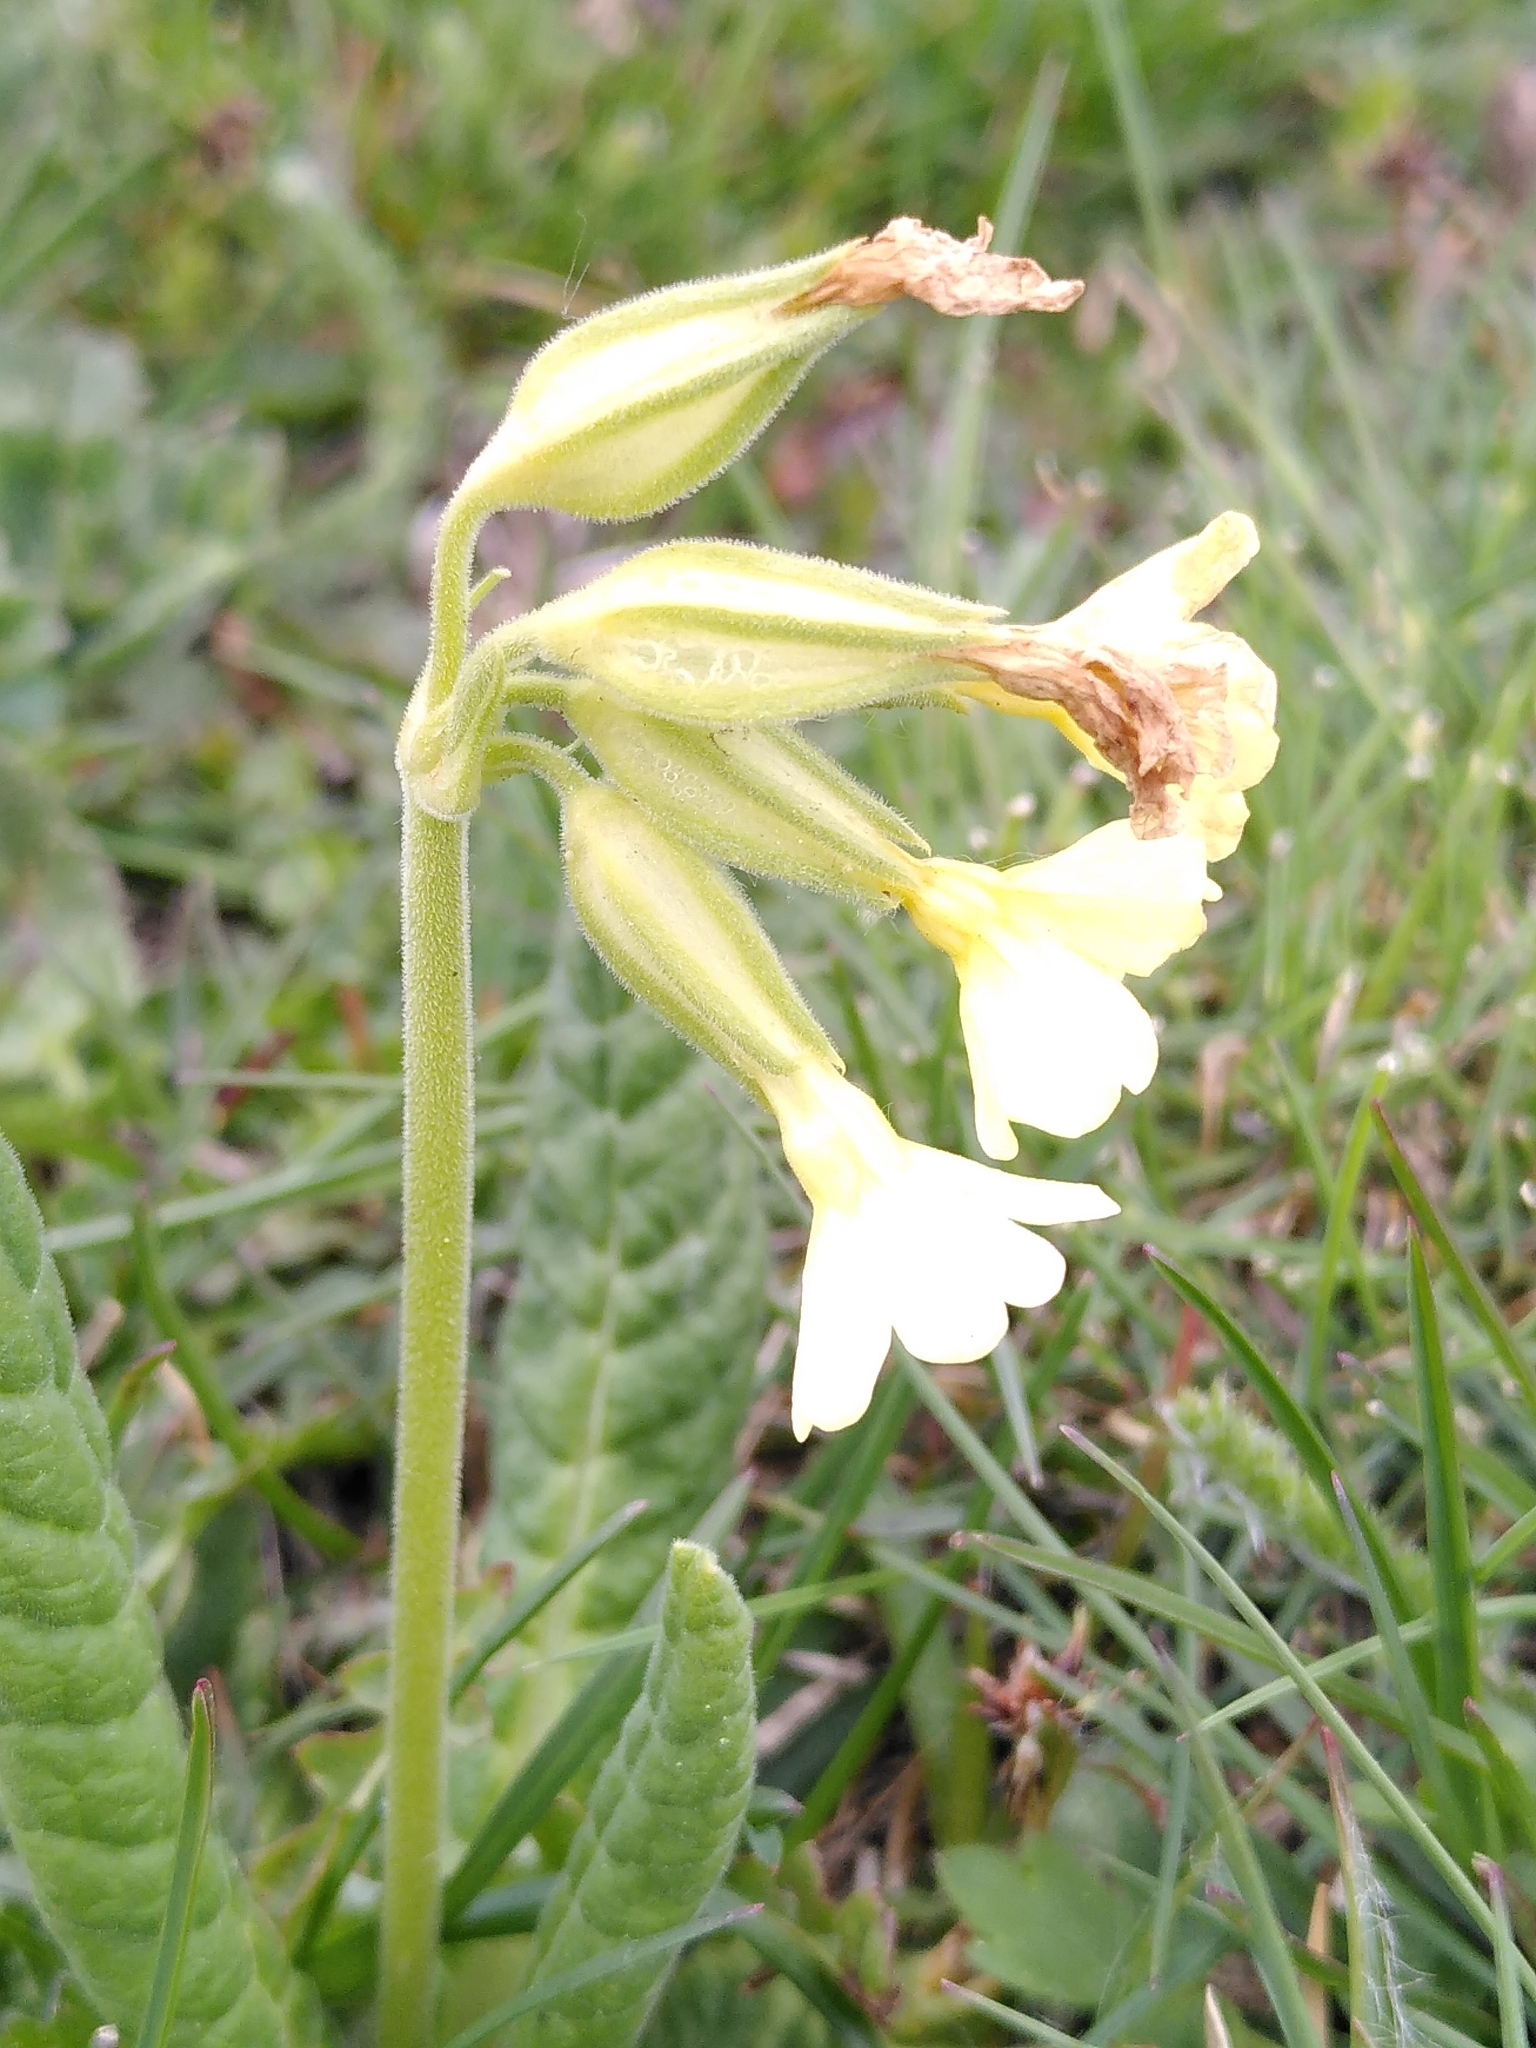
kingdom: Plantae
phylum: Tracheophyta
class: Magnoliopsida
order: Ericales
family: Primulaceae
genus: Primula
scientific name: Primula intricata
